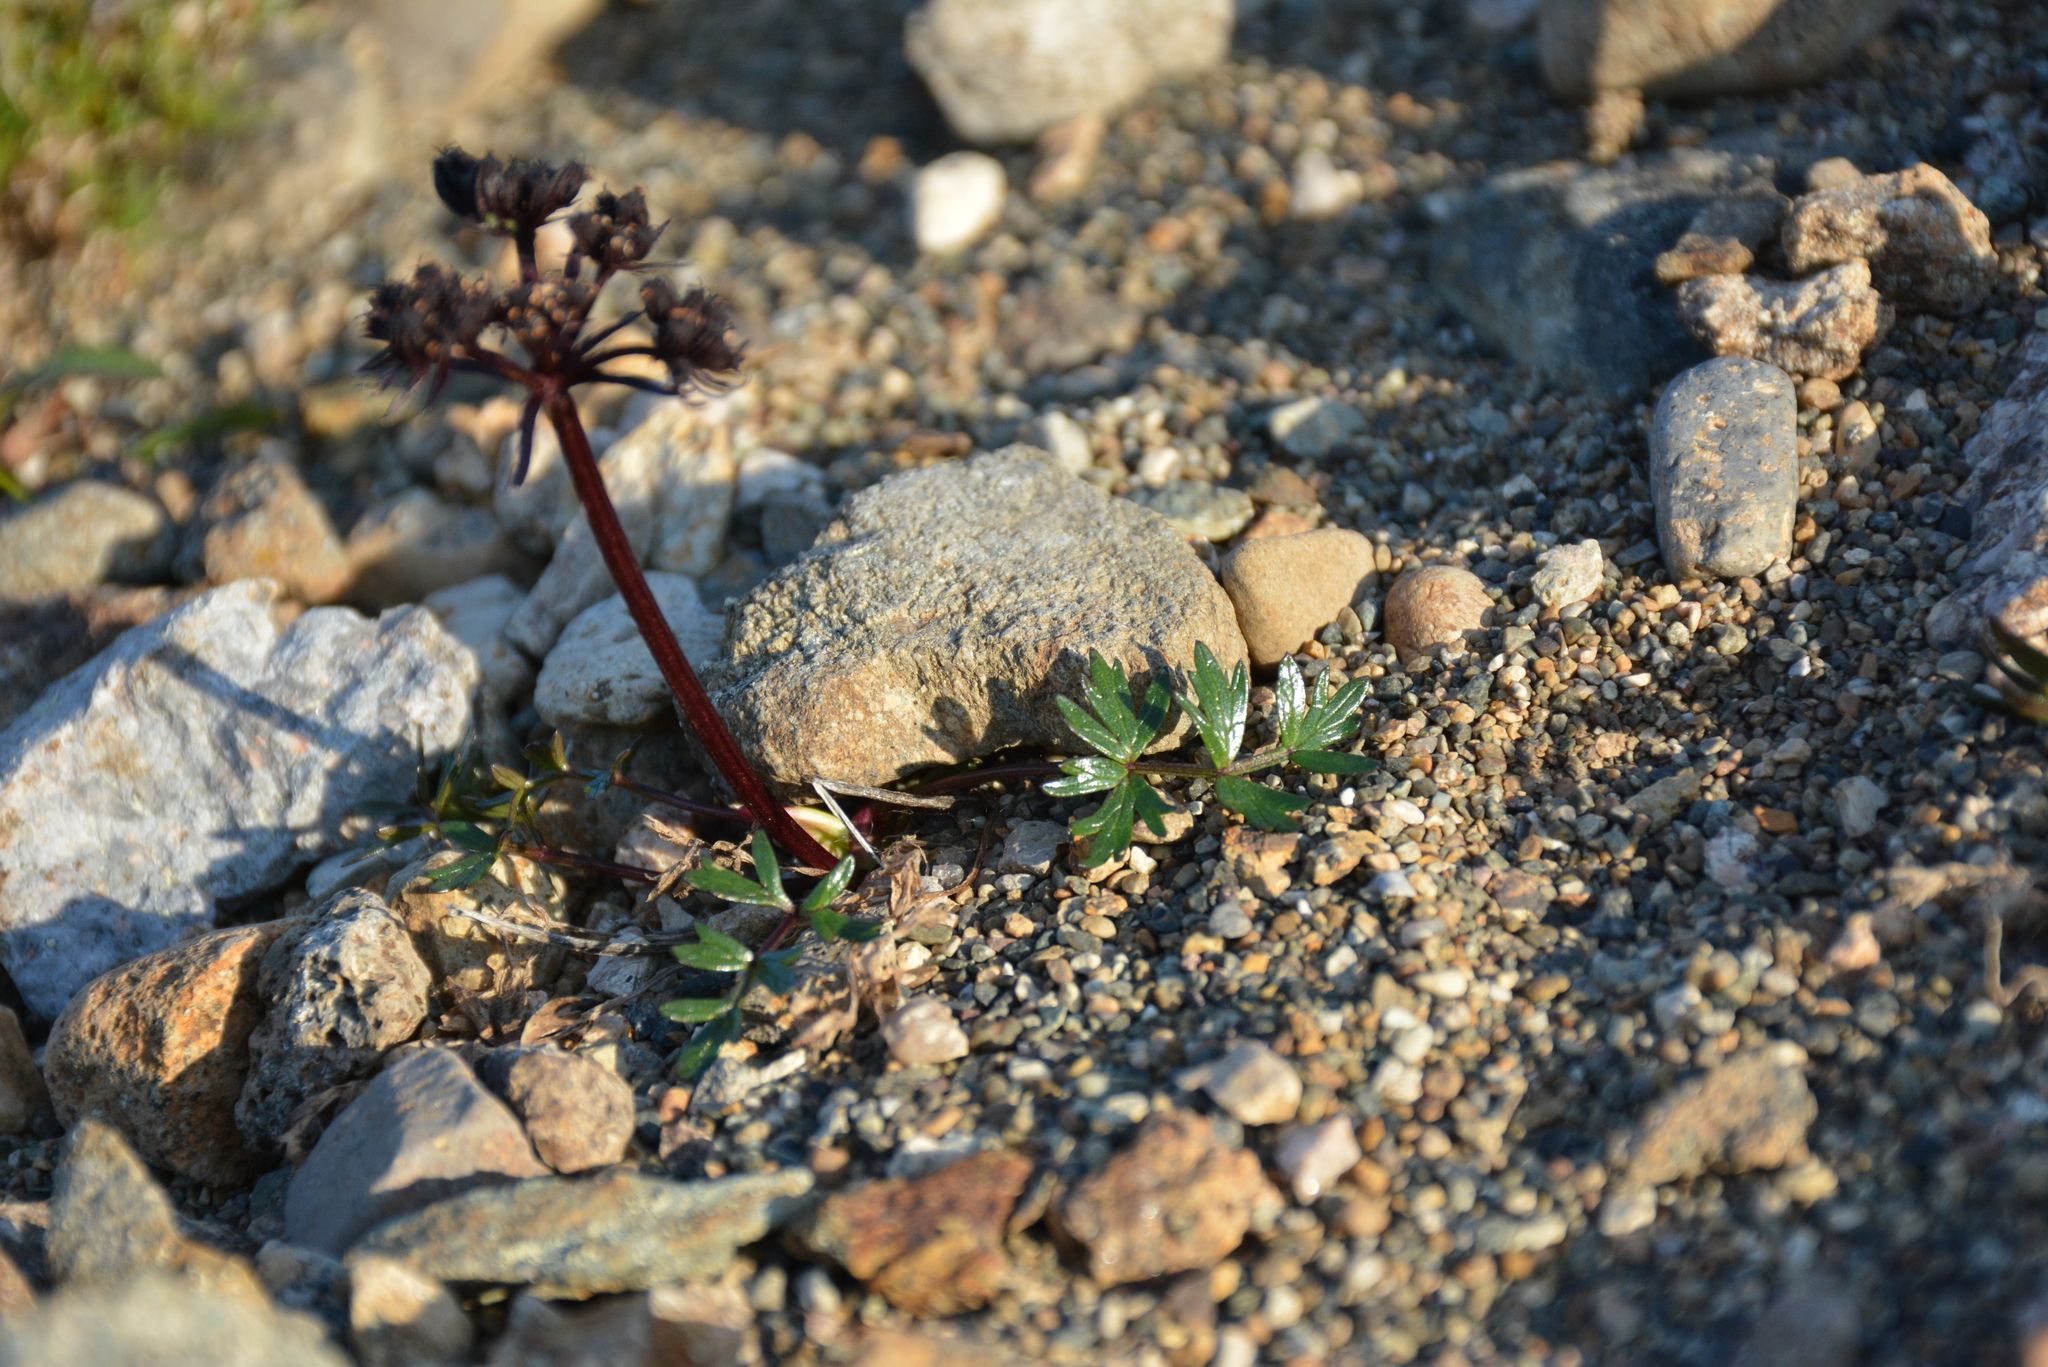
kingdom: Plantae
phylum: Tracheophyta
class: Magnoliopsida
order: Apiales
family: Apiaceae
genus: Orumbella
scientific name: Orumbella macounii
